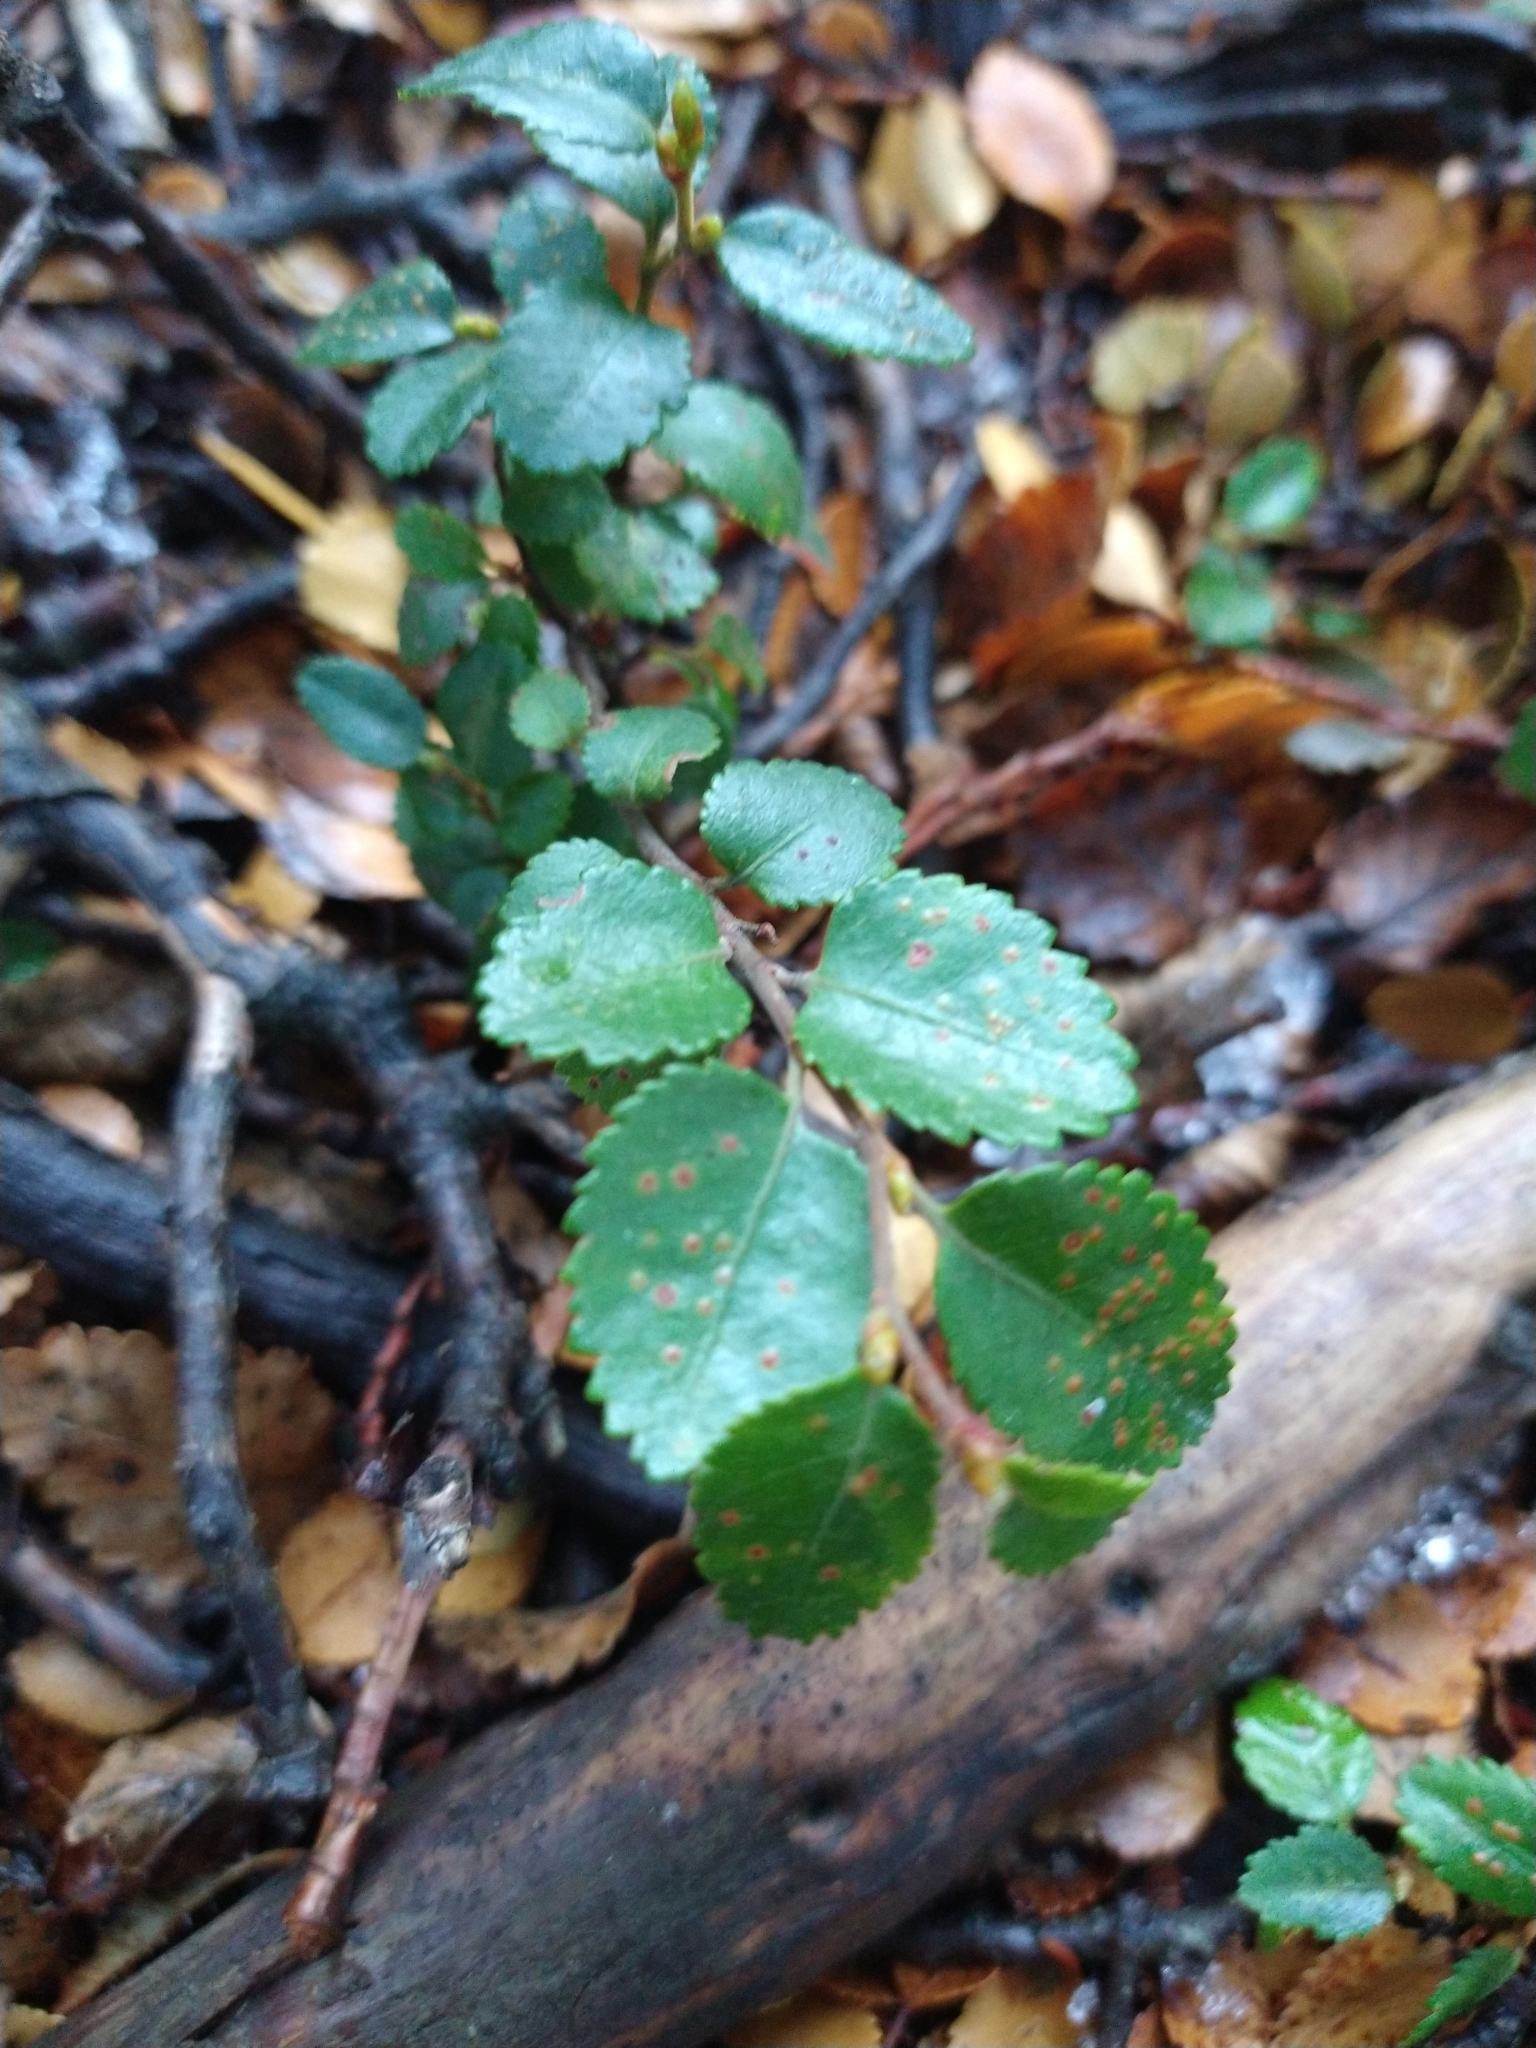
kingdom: Plantae
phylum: Tracheophyta
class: Magnoliopsida
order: Fagales
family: Nothofagaceae
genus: Nothofagus
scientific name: Nothofagus betuloides
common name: Magellan's beech
